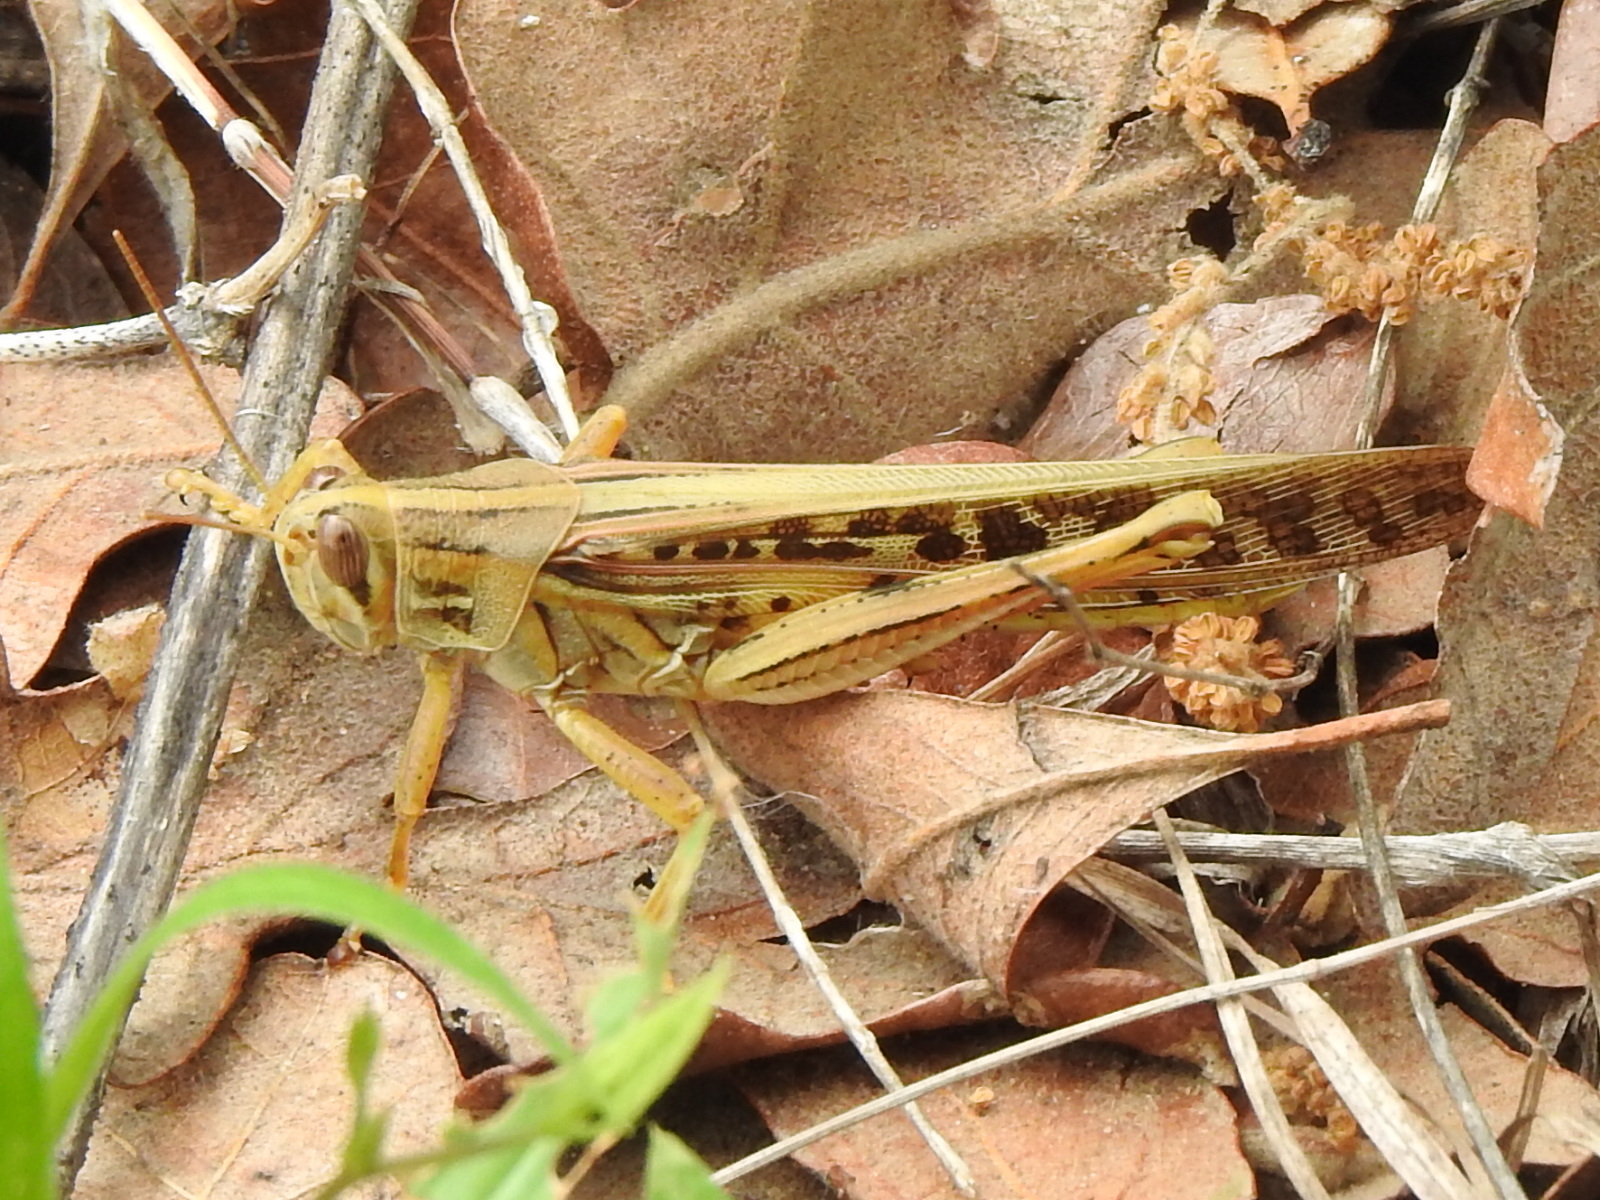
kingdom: Animalia
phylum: Arthropoda
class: Insecta
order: Orthoptera
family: Acrididae
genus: Schistocerca
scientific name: Schistocerca americana
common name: American bird locust
